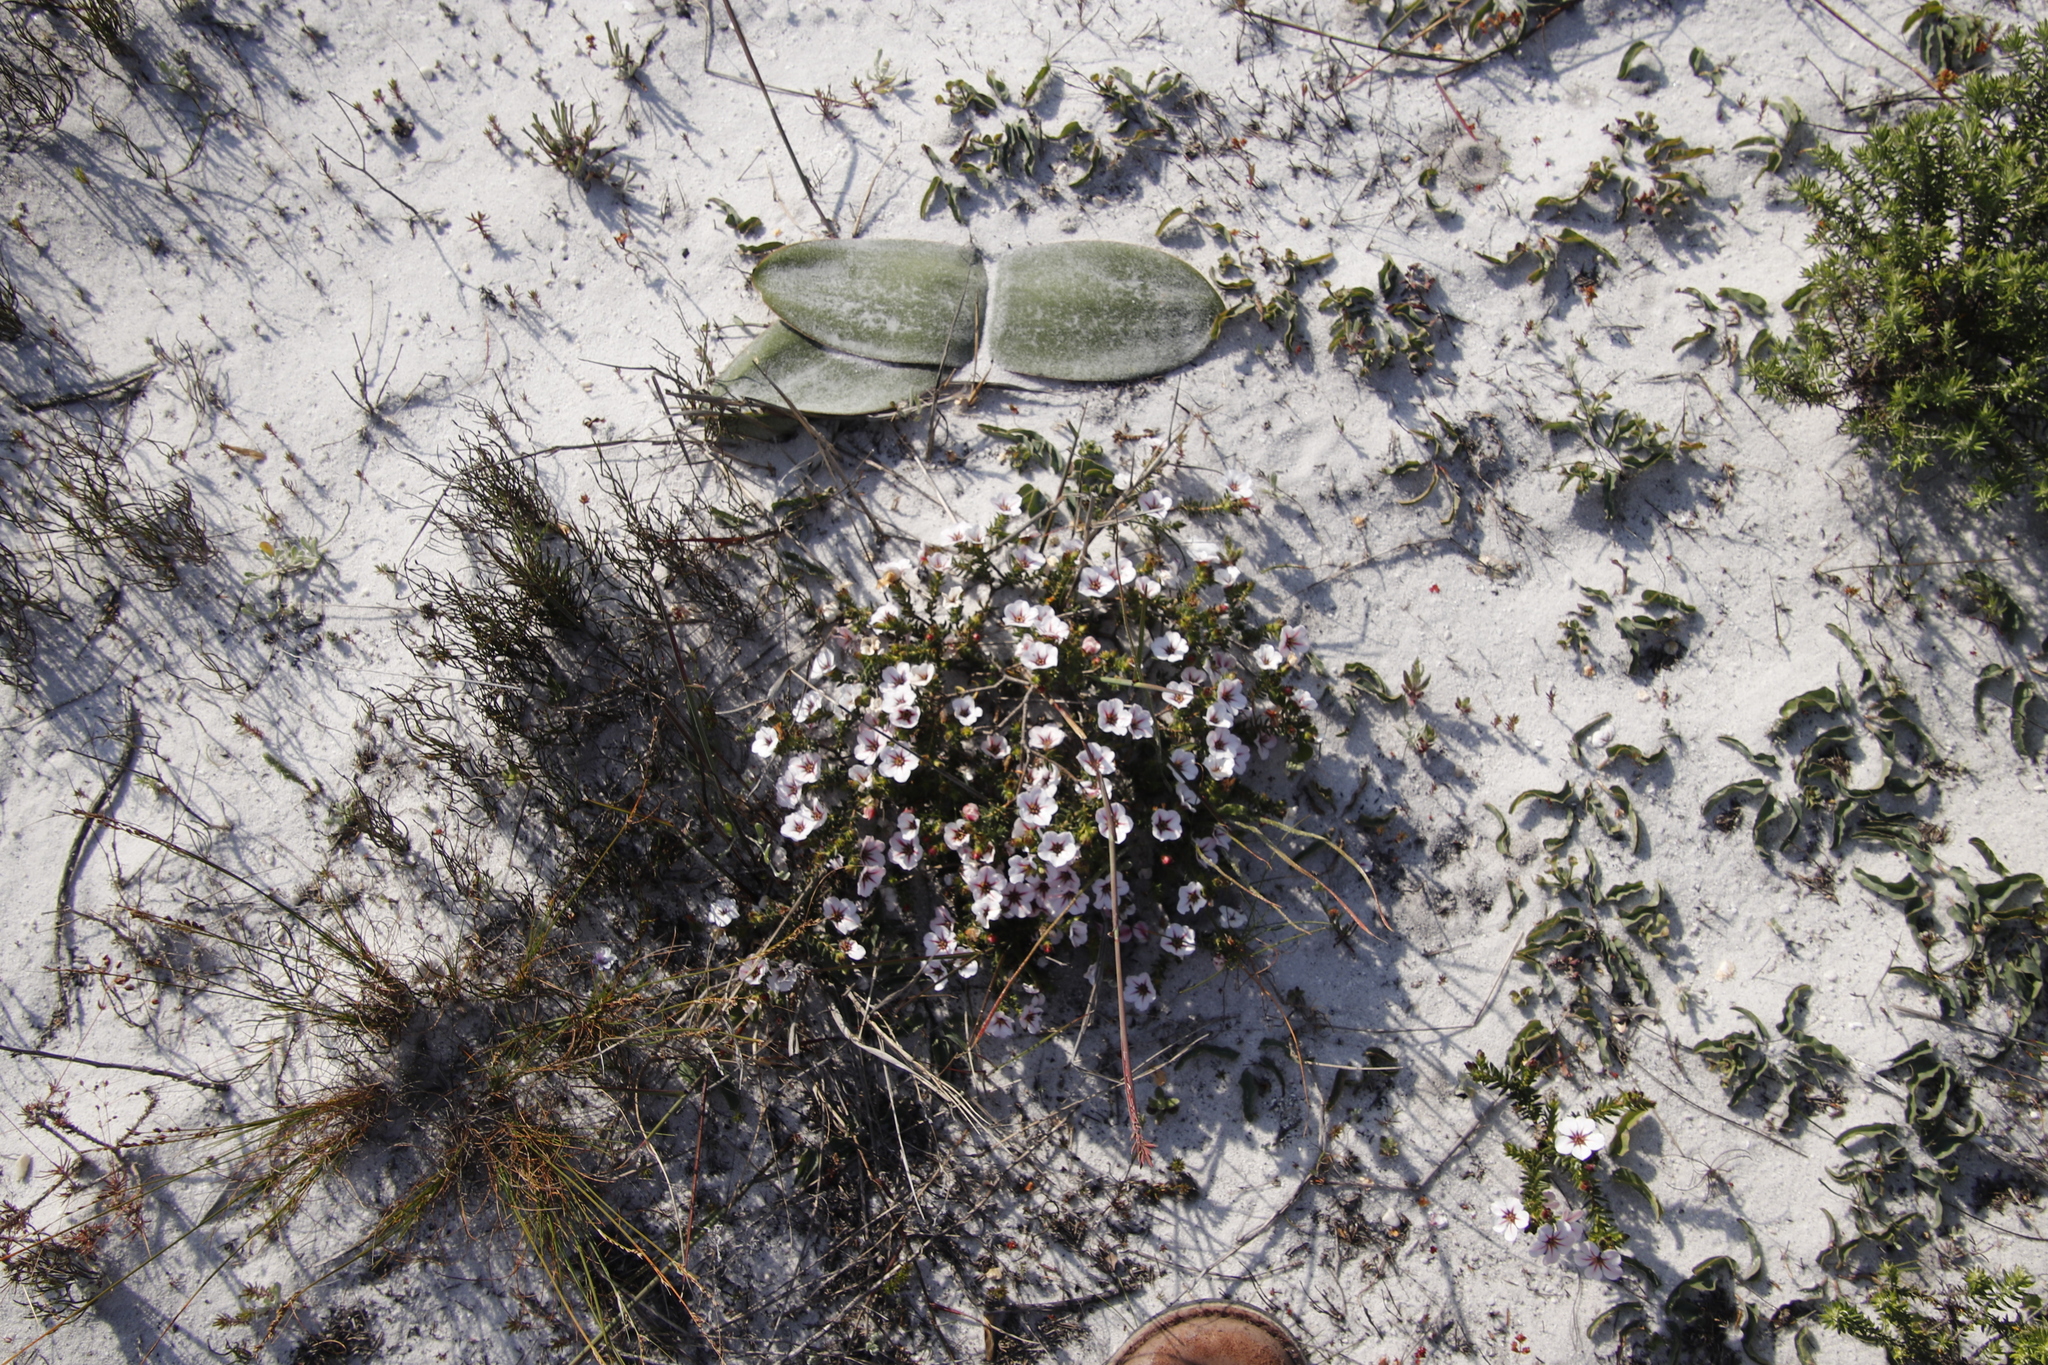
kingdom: Plantae
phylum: Tracheophyta
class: Magnoliopsida
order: Malpighiales
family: Euphorbiaceae
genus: Euphorbia
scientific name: Euphorbia tuberosa
